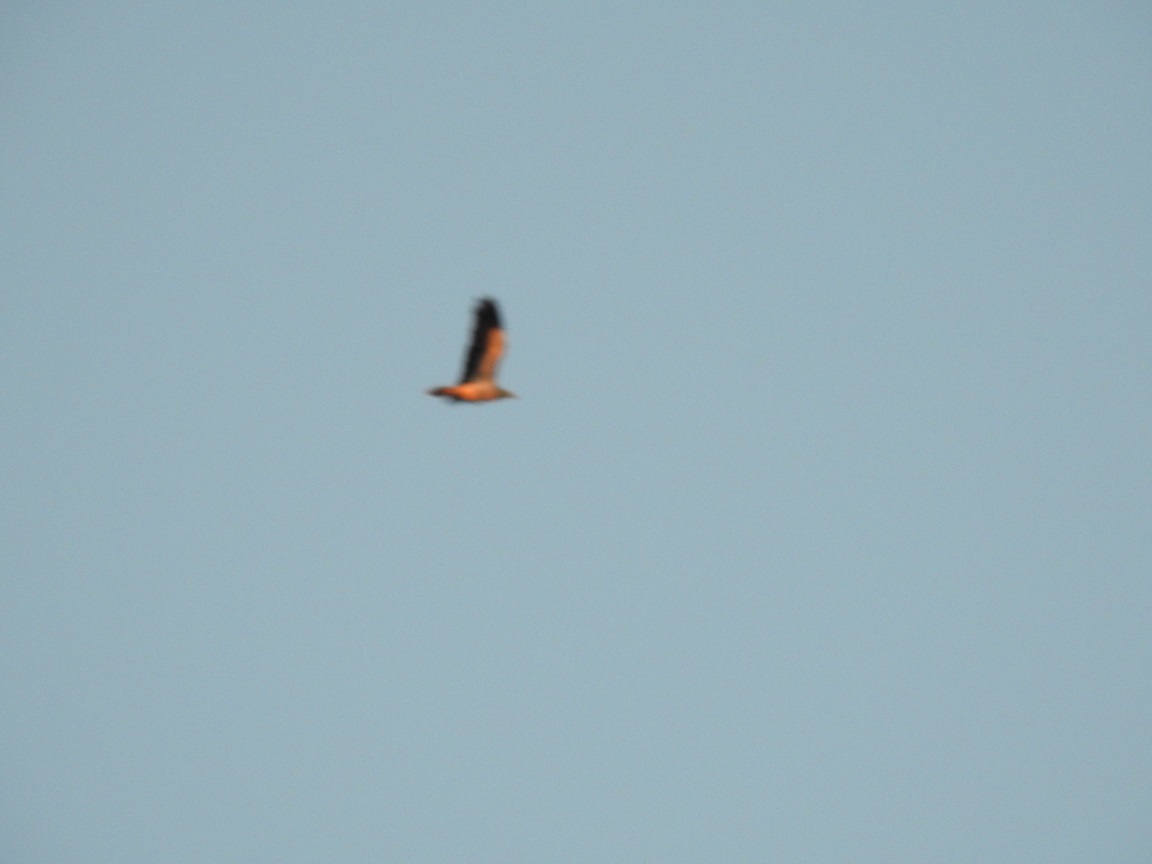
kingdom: Animalia
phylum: Chordata
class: Aves
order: Accipitriformes
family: Accipitridae
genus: Neophron
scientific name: Neophron percnopterus
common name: Egyptian vulture
